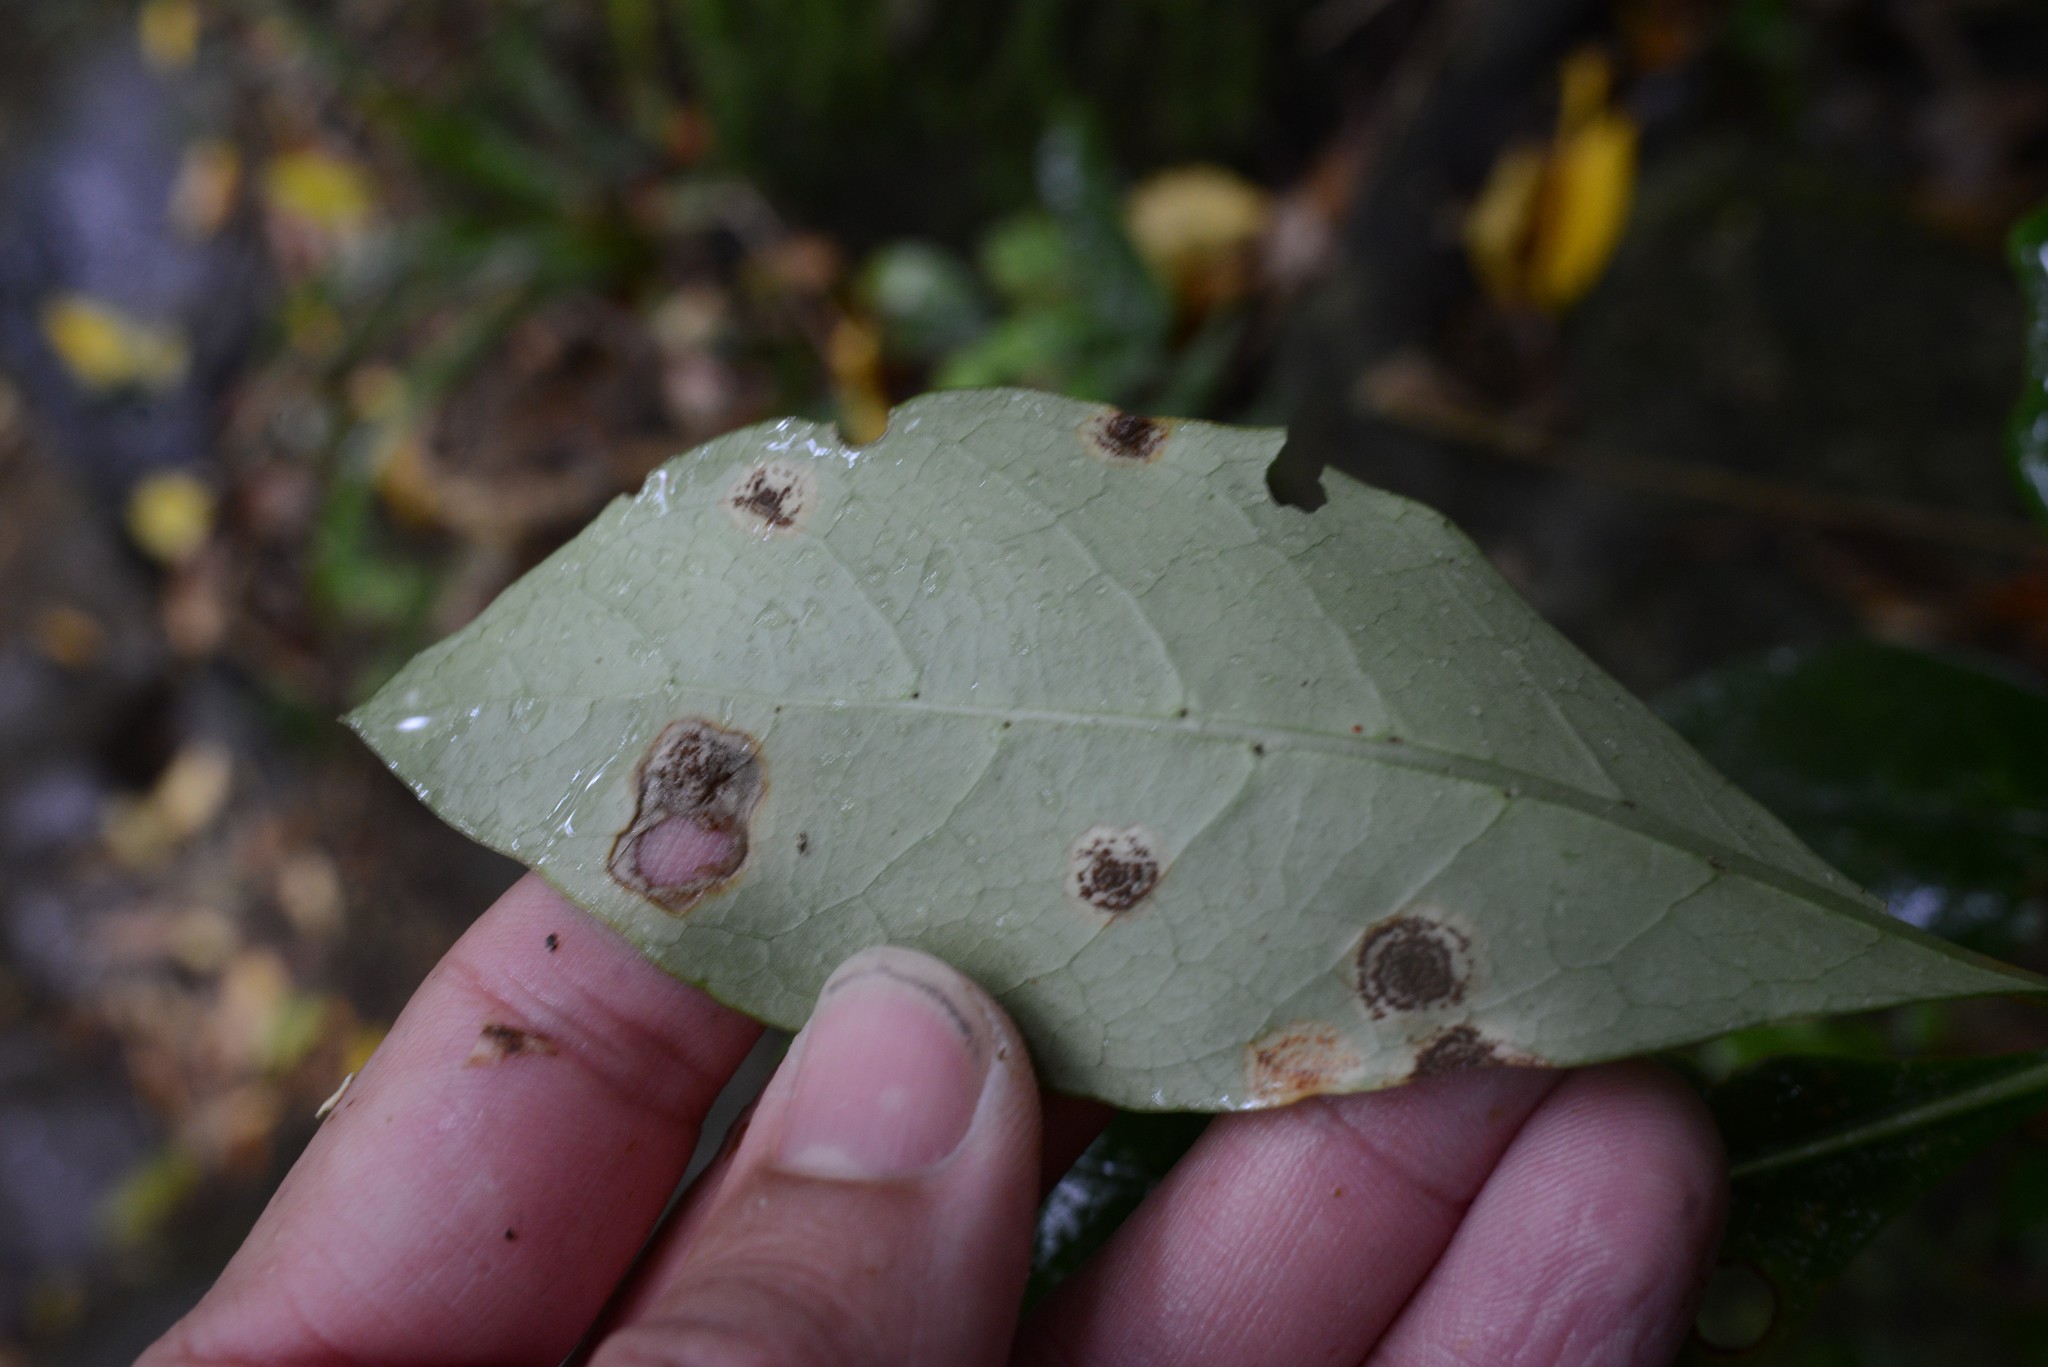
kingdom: Fungi
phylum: Basidiomycota
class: Pucciniomycetes
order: Pucciniales
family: Pucciniaceae
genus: Puccinia
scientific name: Puccinia coprosmae
